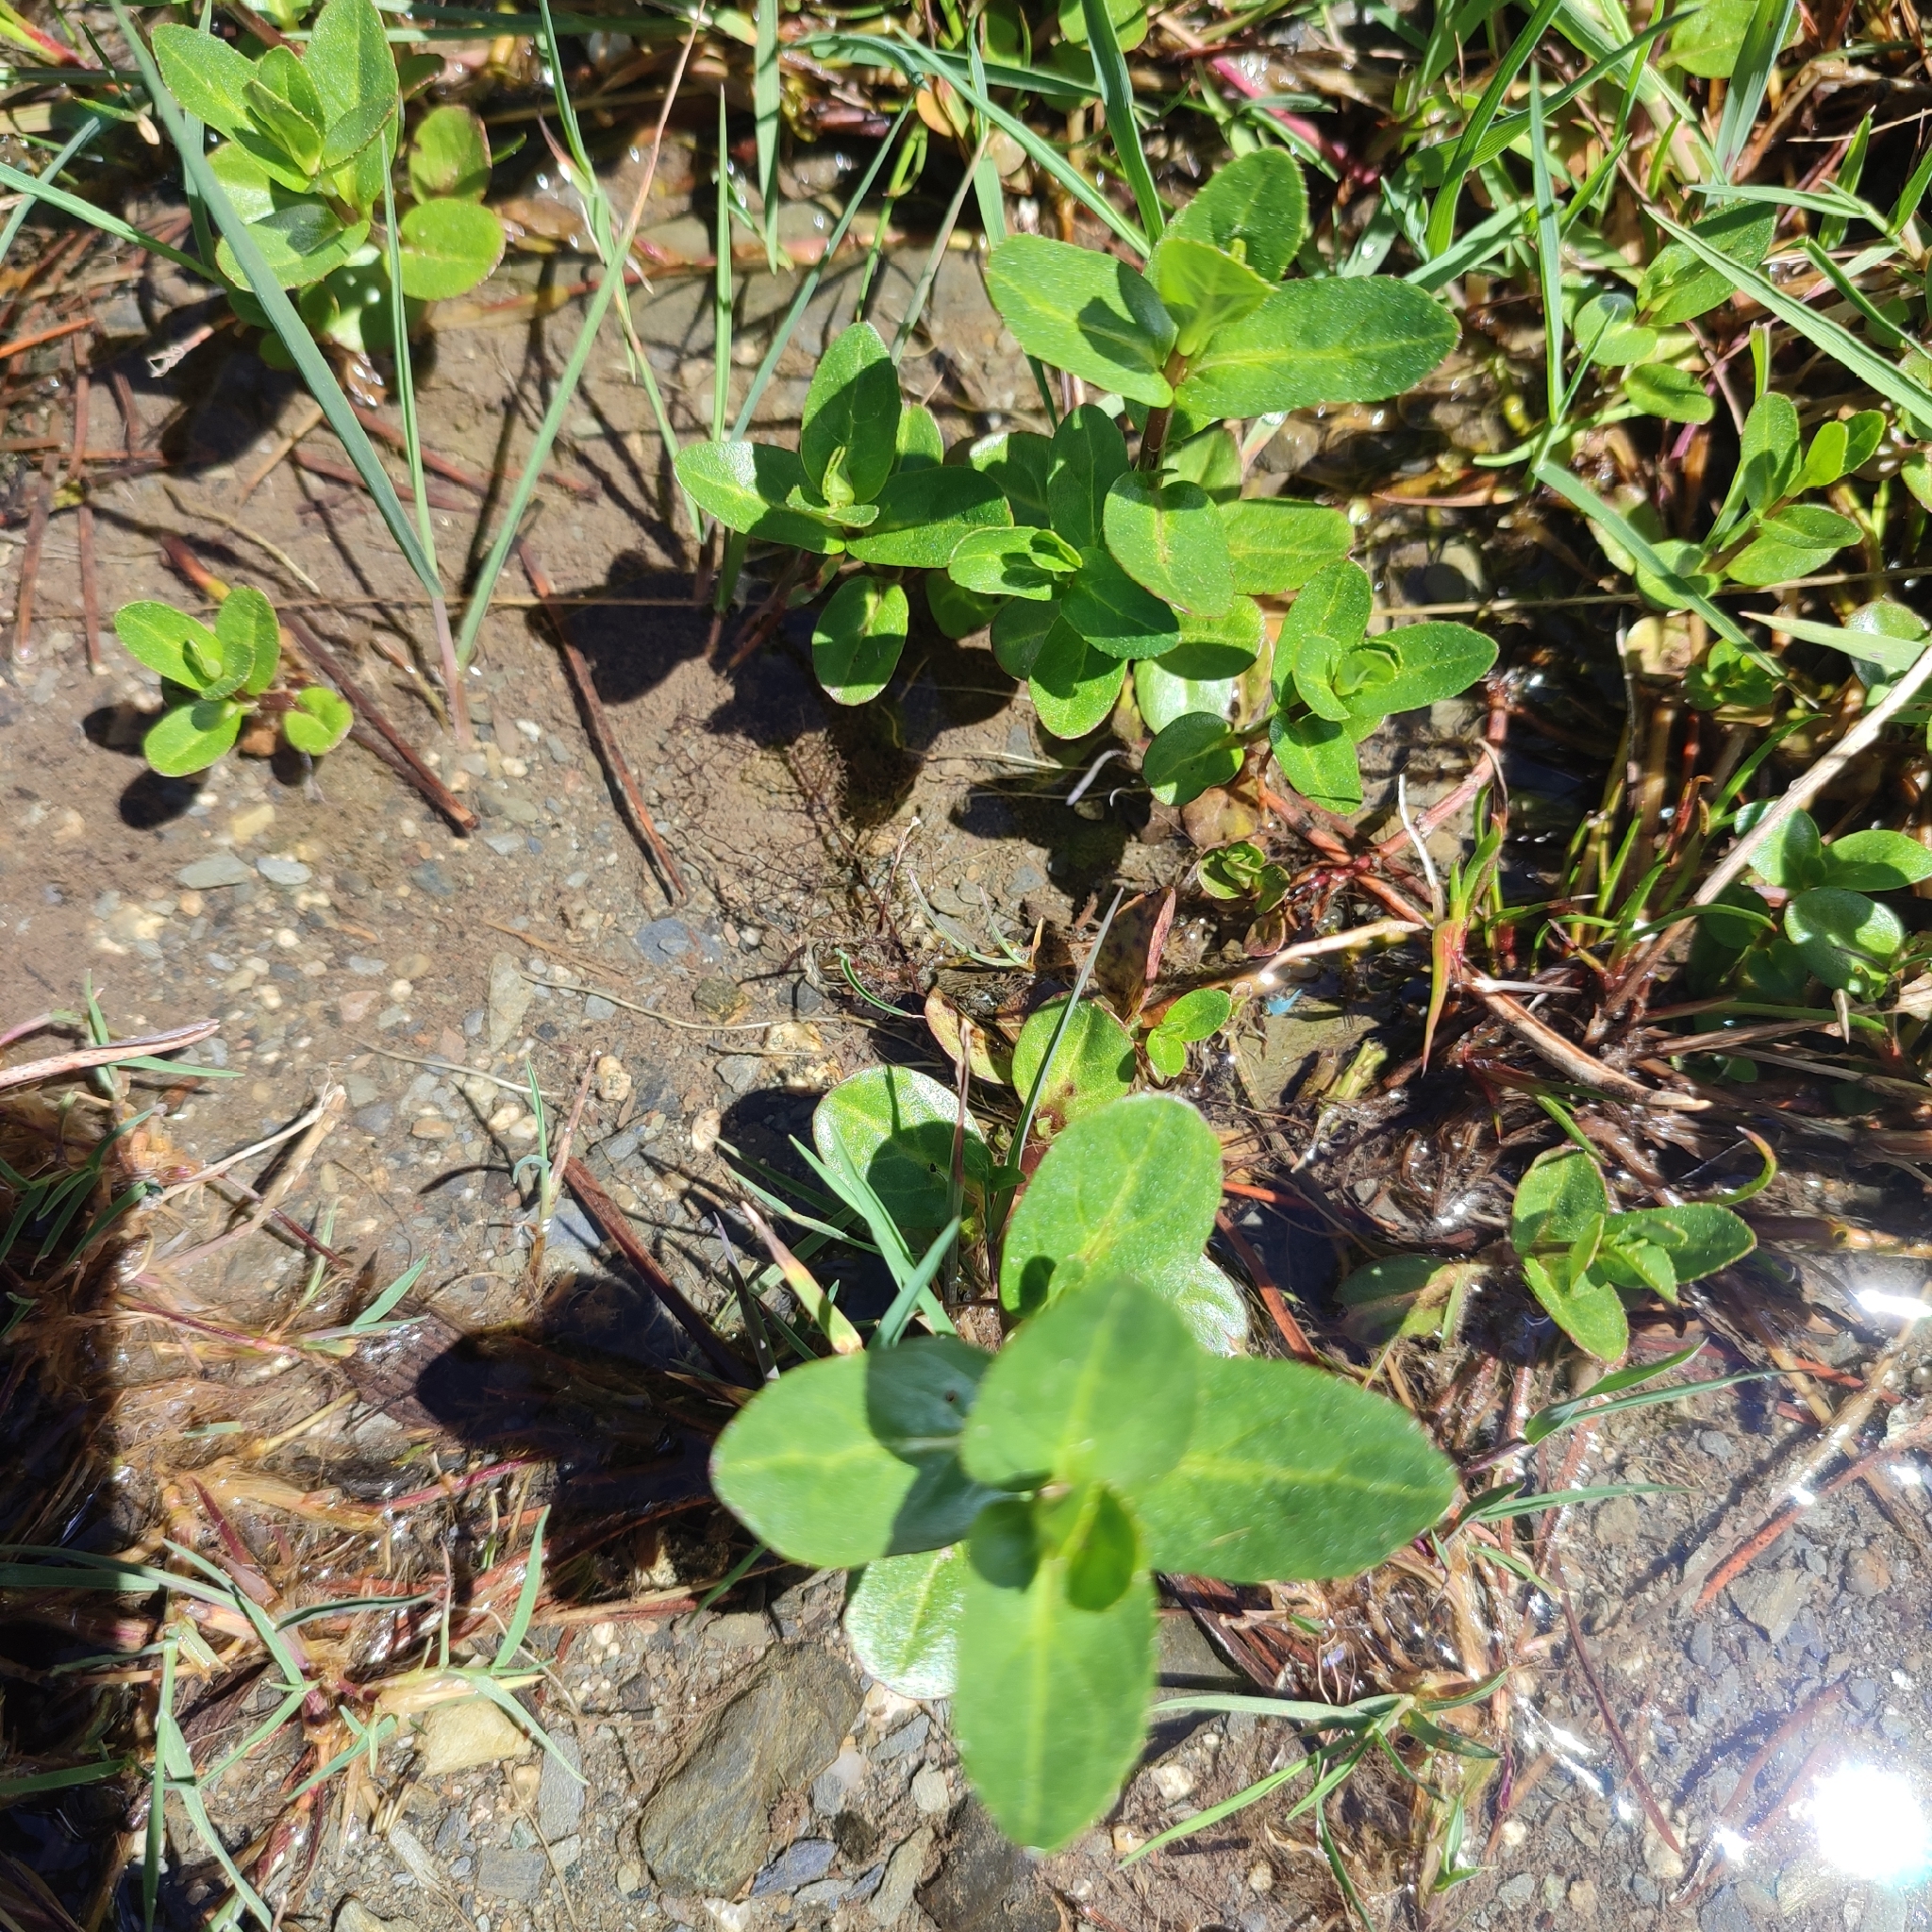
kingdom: Plantae
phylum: Tracheophyta
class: Magnoliopsida
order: Lamiales
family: Plantaginaceae
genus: Veronica
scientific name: Veronica beccabunga
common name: Brooklime
